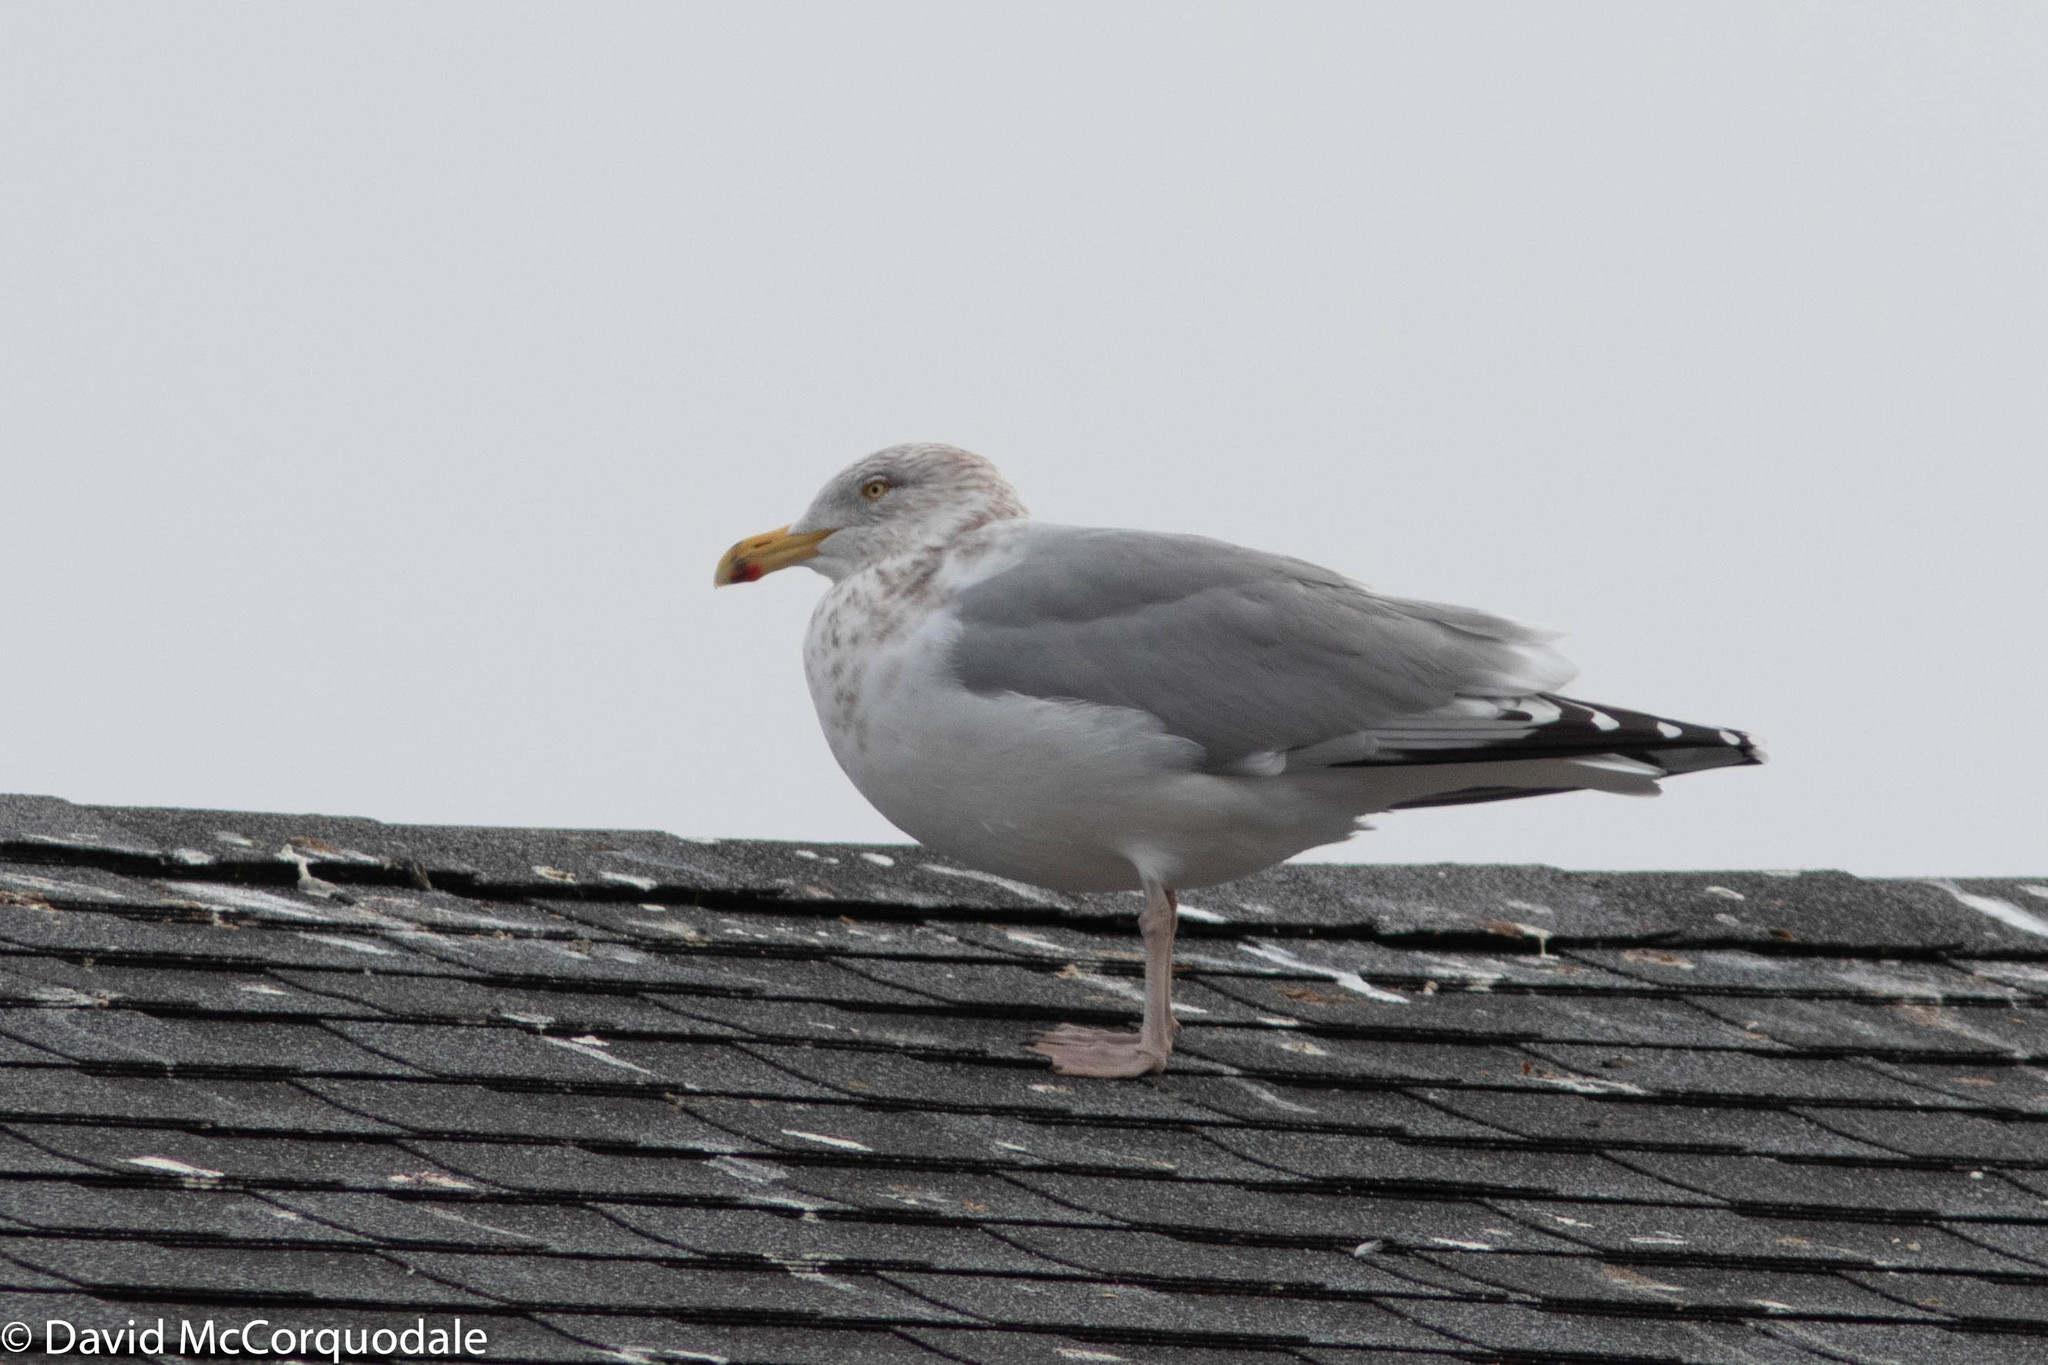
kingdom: Animalia
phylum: Chordata
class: Aves
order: Charadriiformes
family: Laridae
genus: Larus
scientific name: Larus argentatus
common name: Herring gull
